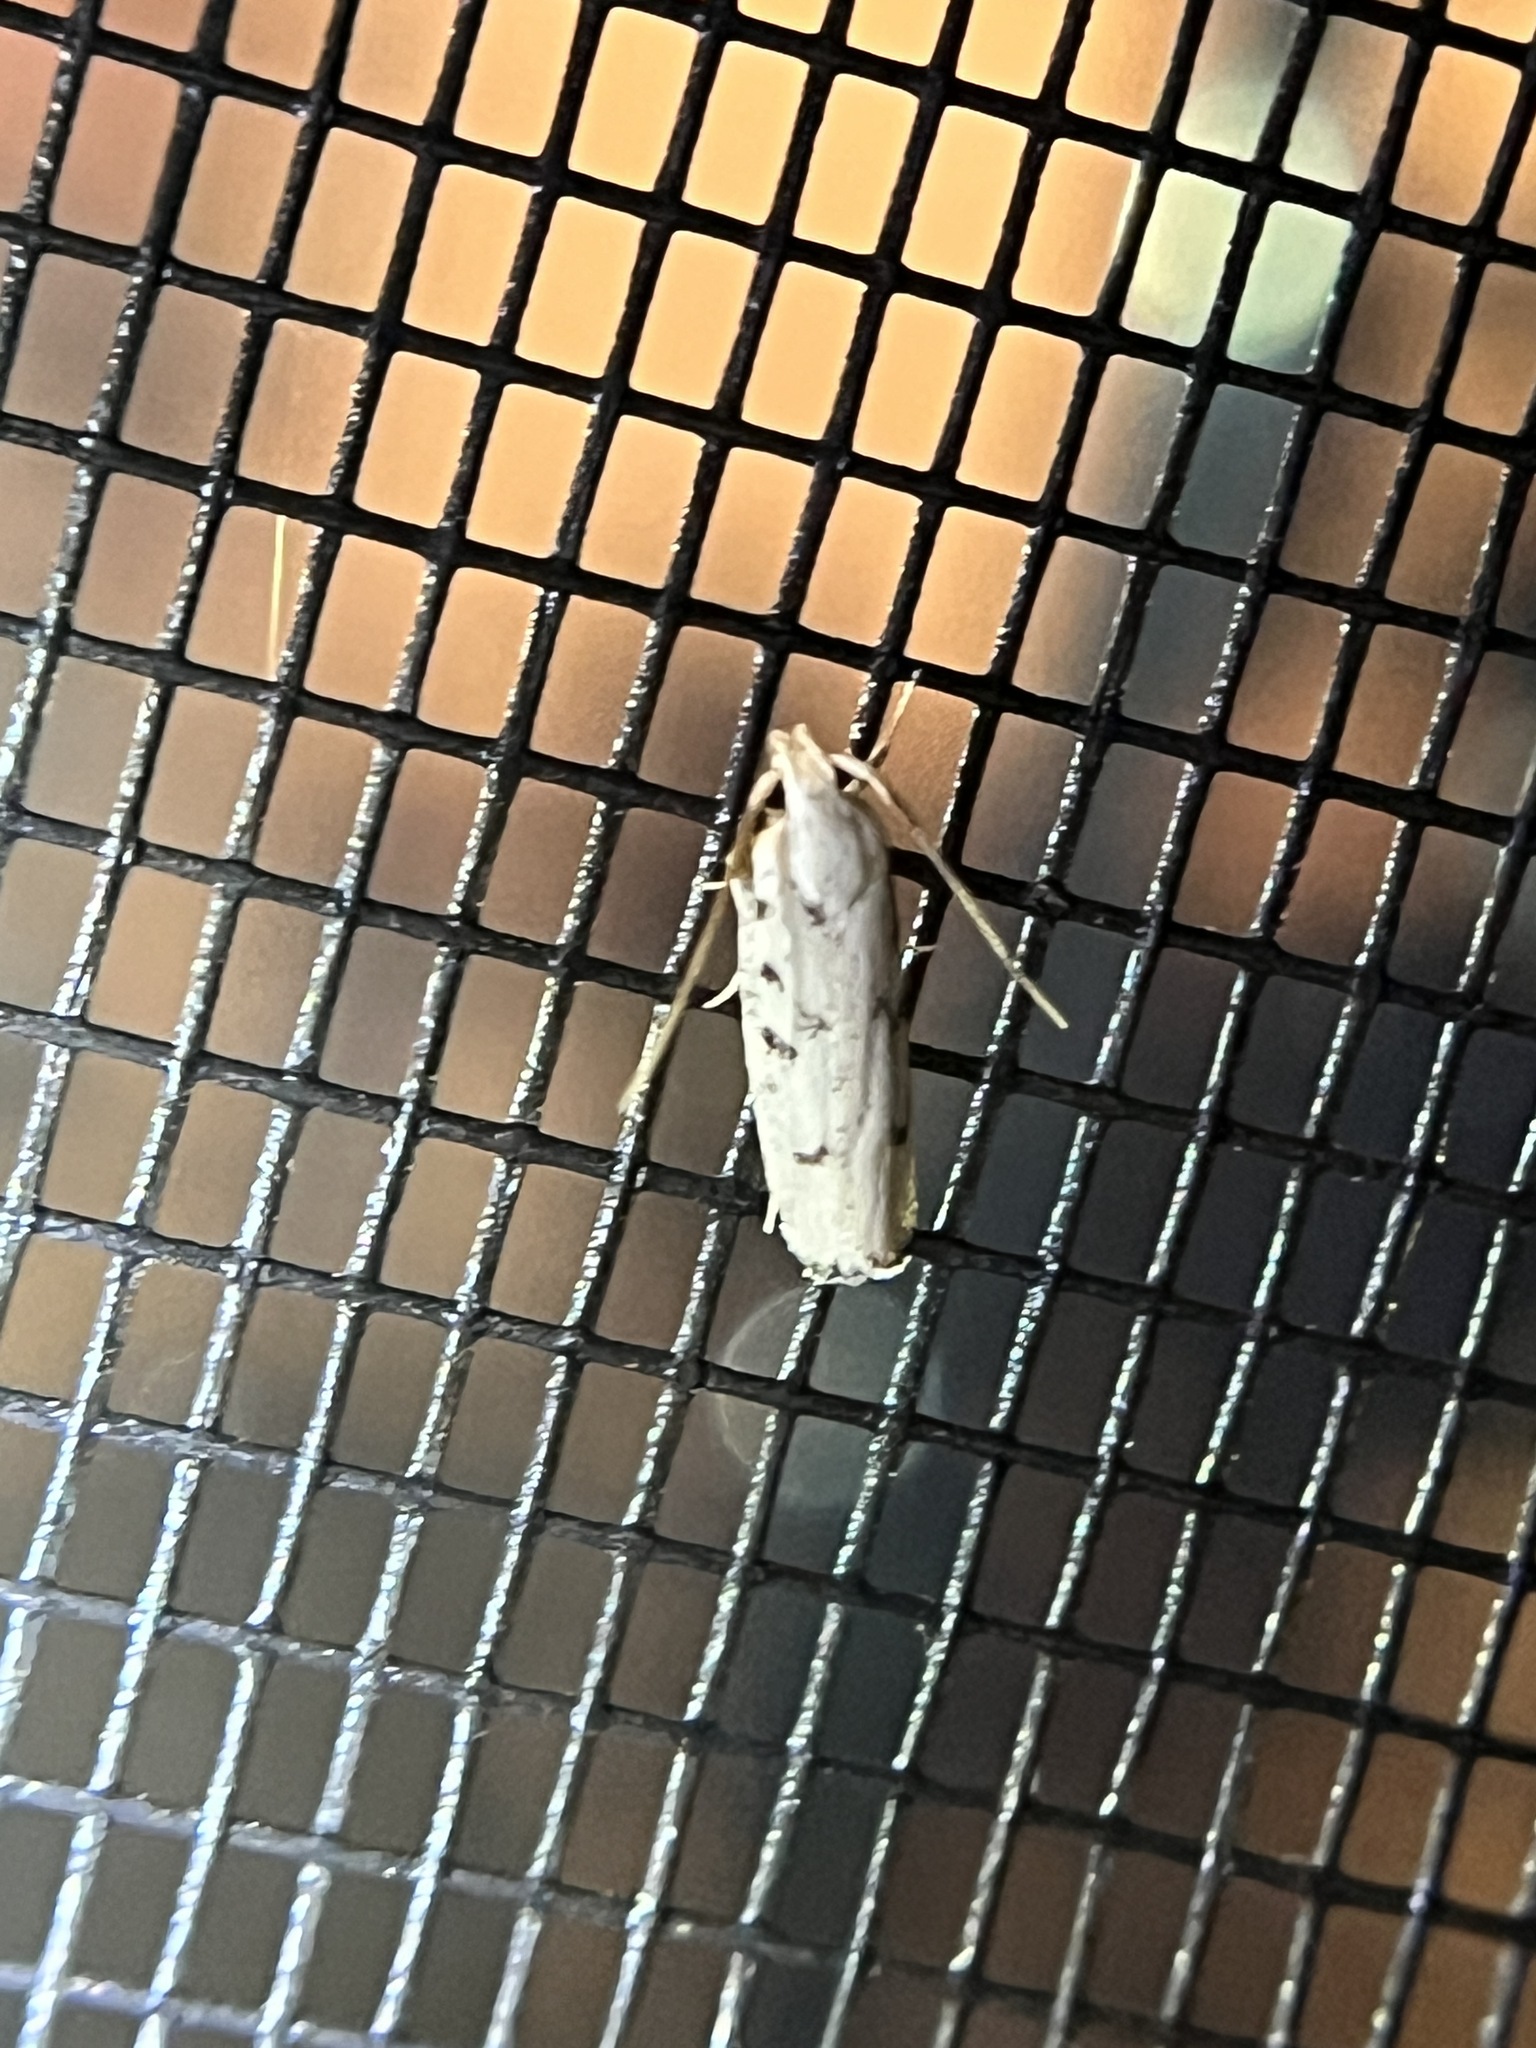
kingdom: Animalia
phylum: Arthropoda
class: Insecta
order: Lepidoptera
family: Autostichidae
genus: Glyphidocera
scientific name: Glyphidocera lactiflosella
